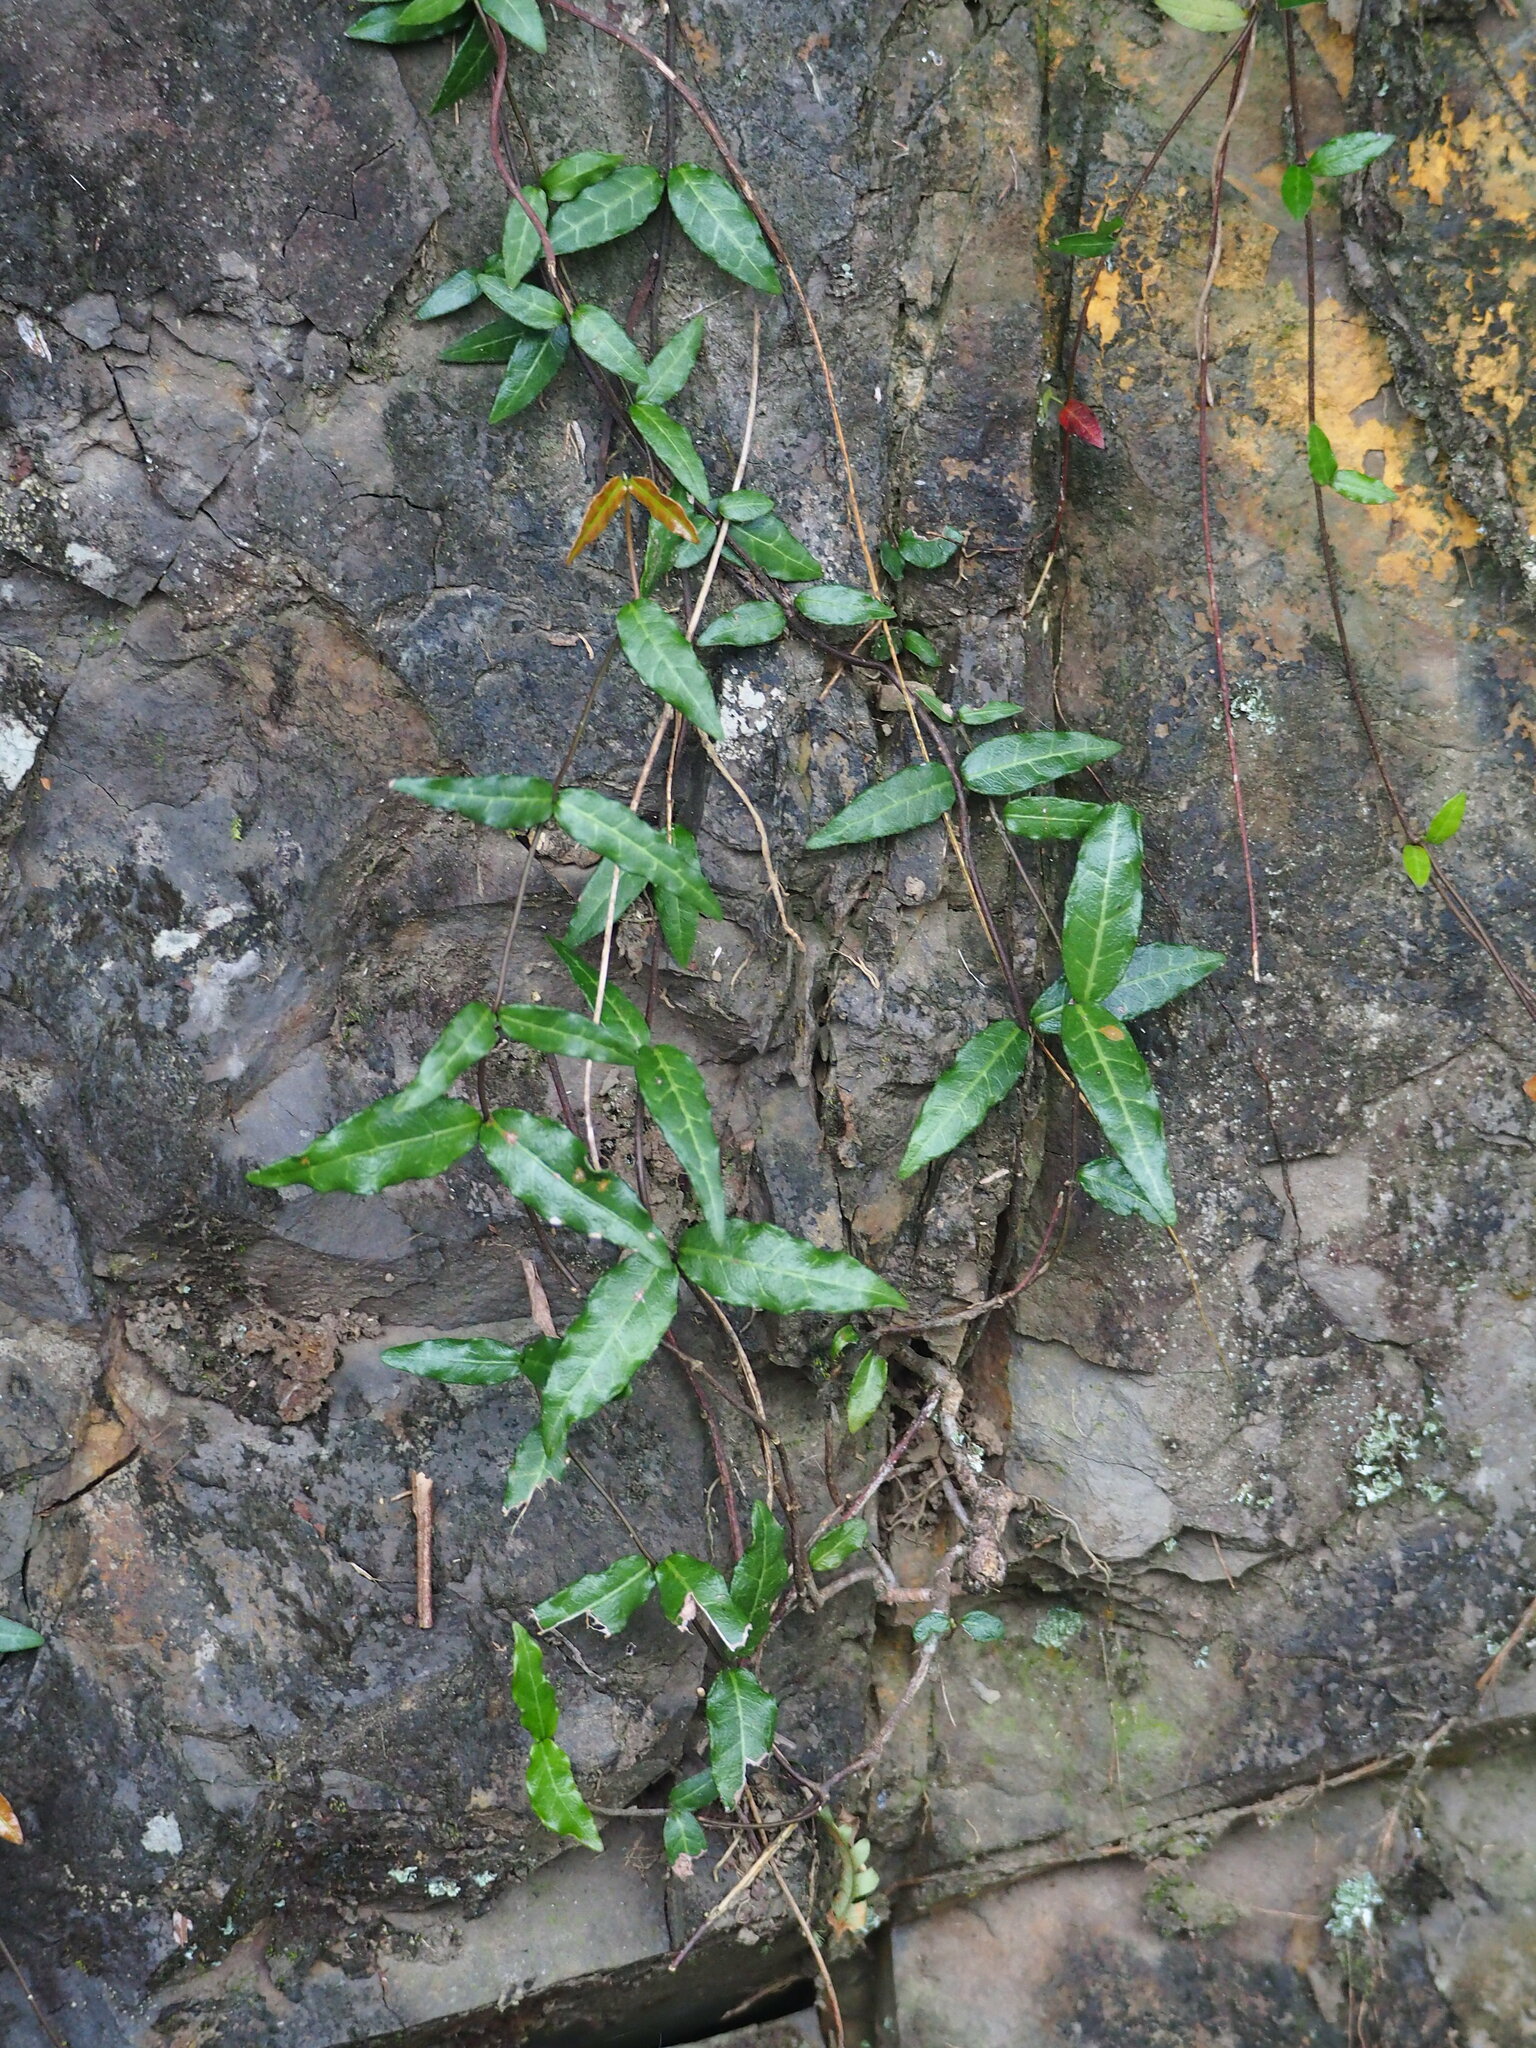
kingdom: Plantae
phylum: Tracheophyta
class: Magnoliopsida
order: Gentianales
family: Apocynaceae
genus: Trachelospermum
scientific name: Trachelospermum asiaticum
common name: Asiatic jasmine
